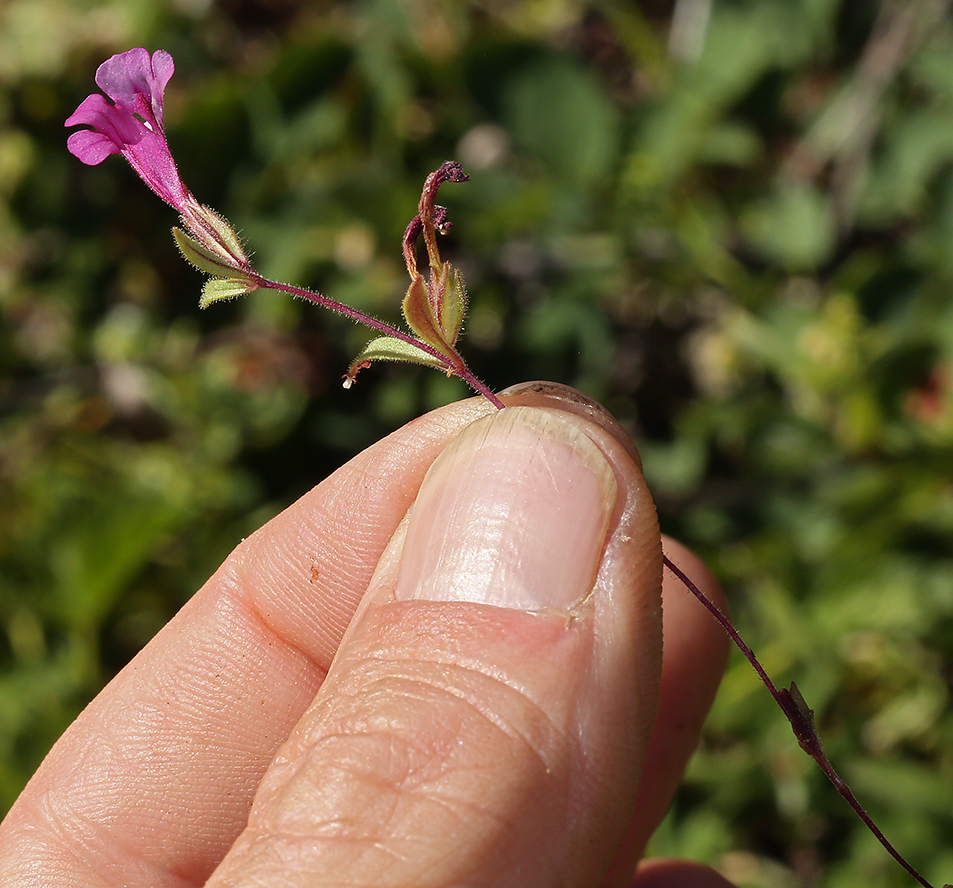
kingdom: Plantae
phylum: Tracheophyta
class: Magnoliopsida
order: Lamiales
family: Phrymaceae
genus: Diplacus
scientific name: Diplacus layneae
